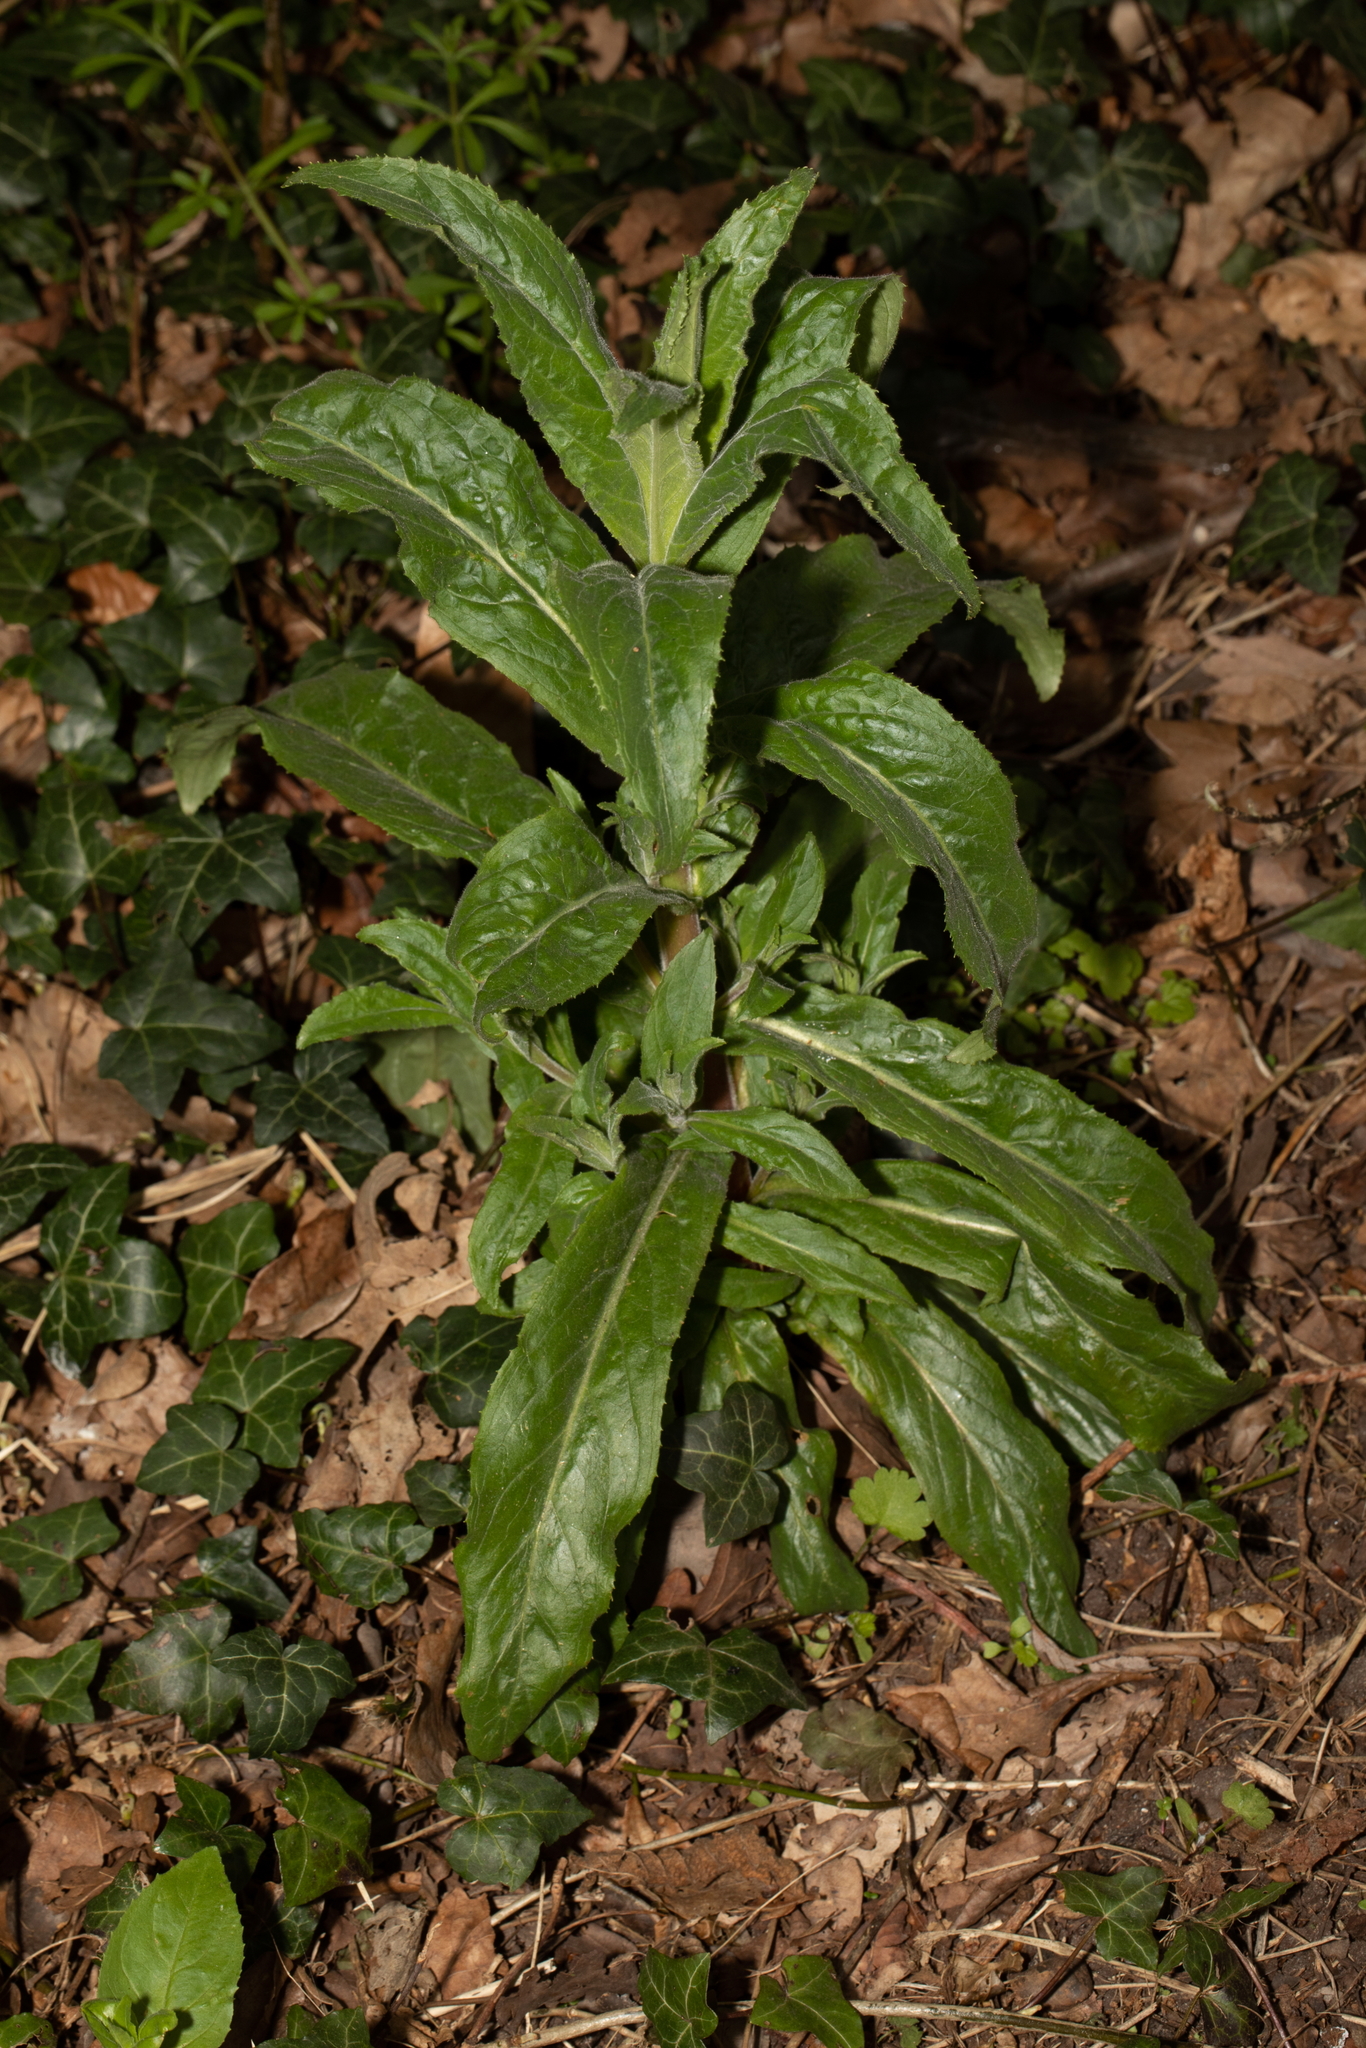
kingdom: Plantae
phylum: Tracheophyta
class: Magnoliopsida
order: Myrtales
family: Onagraceae
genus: Epilobium
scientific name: Epilobium hirsutum
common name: Great willowherb
